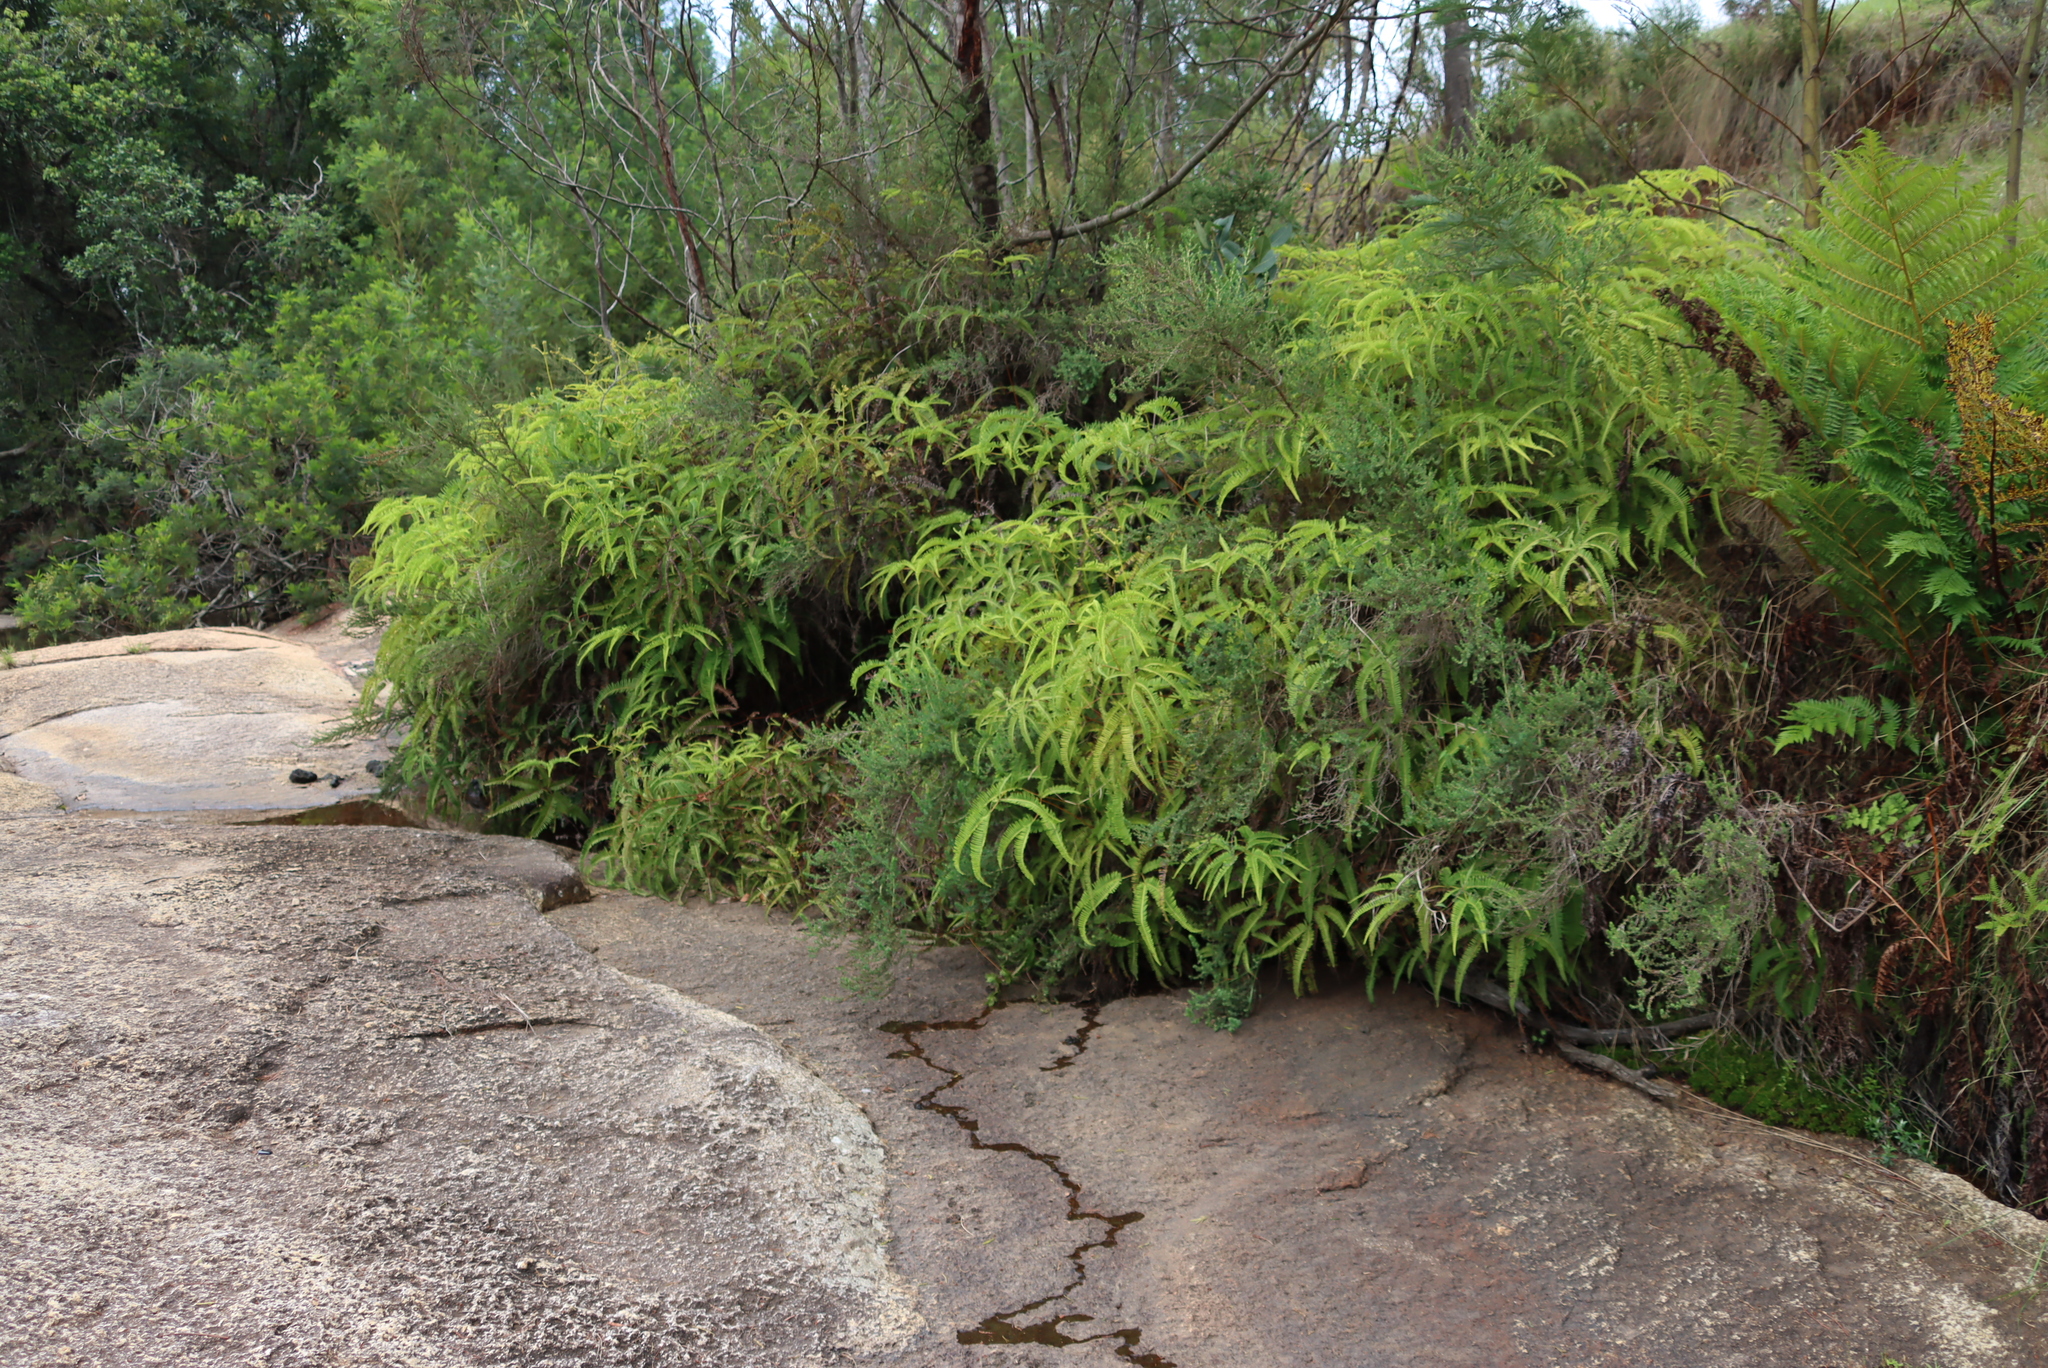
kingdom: Plantae
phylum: Tracheophyta
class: Polypodiopsida
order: Gleicheniales
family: Gleicheniaceae
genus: Dicranopteris
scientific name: Dicranopteris linearis
